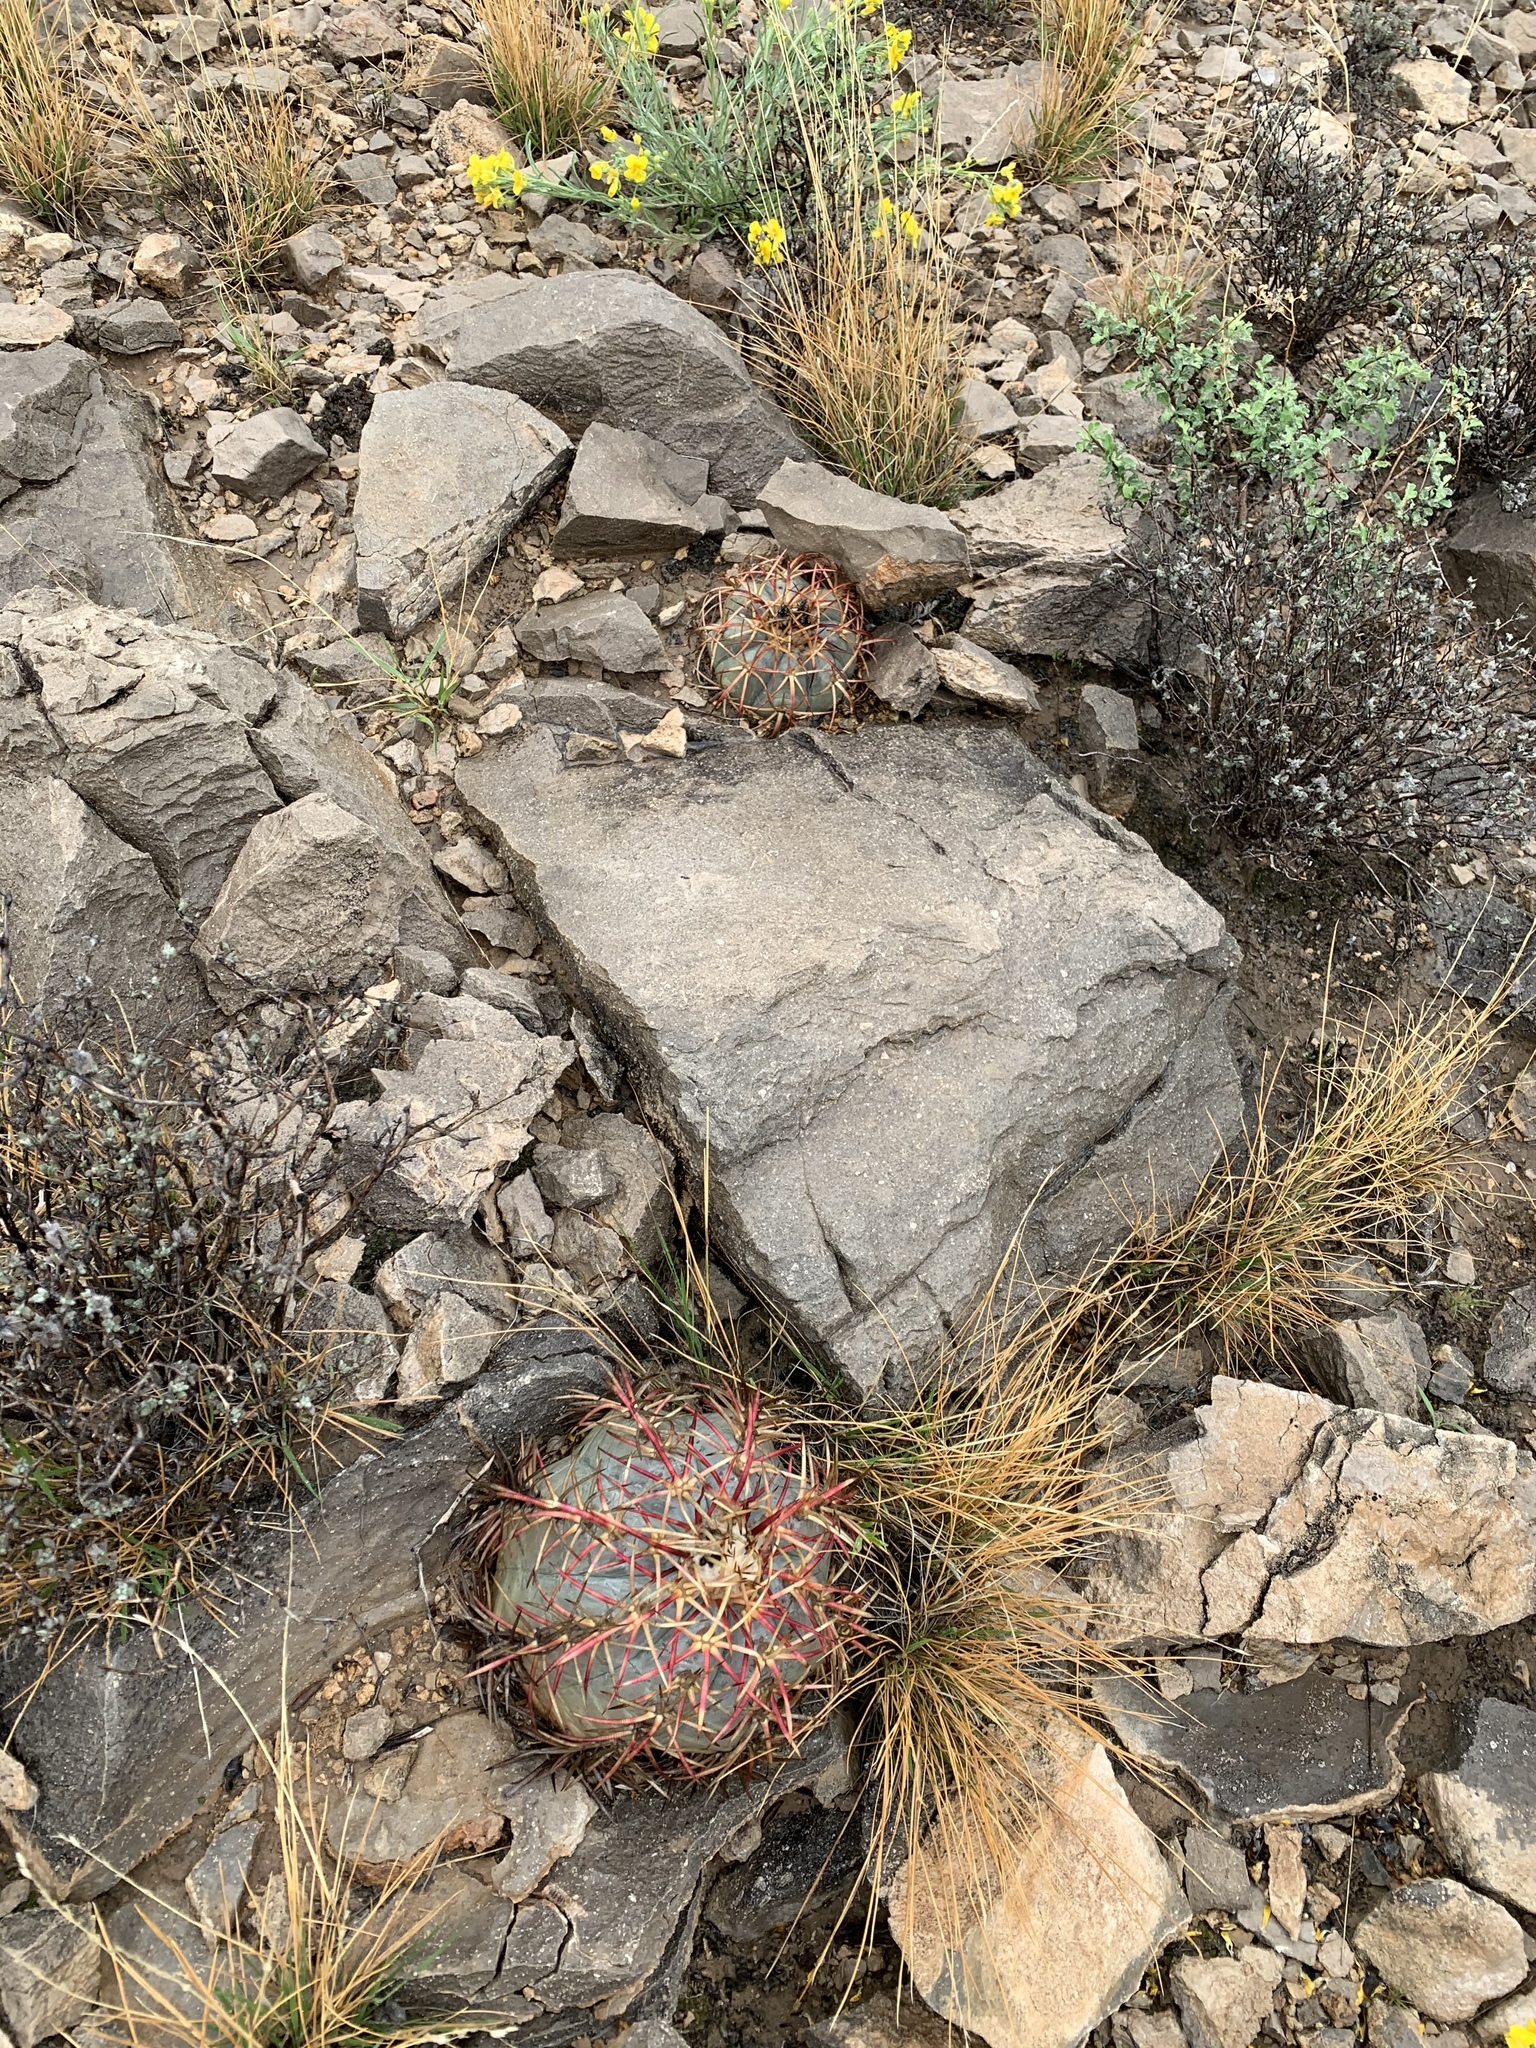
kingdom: Plantae
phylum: Tracheophyta
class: Magnoliopsida
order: Caryophyllales
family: Cactaceae
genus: Echinocactus
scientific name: Echinocactus horizonthalonius
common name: Devilshead
